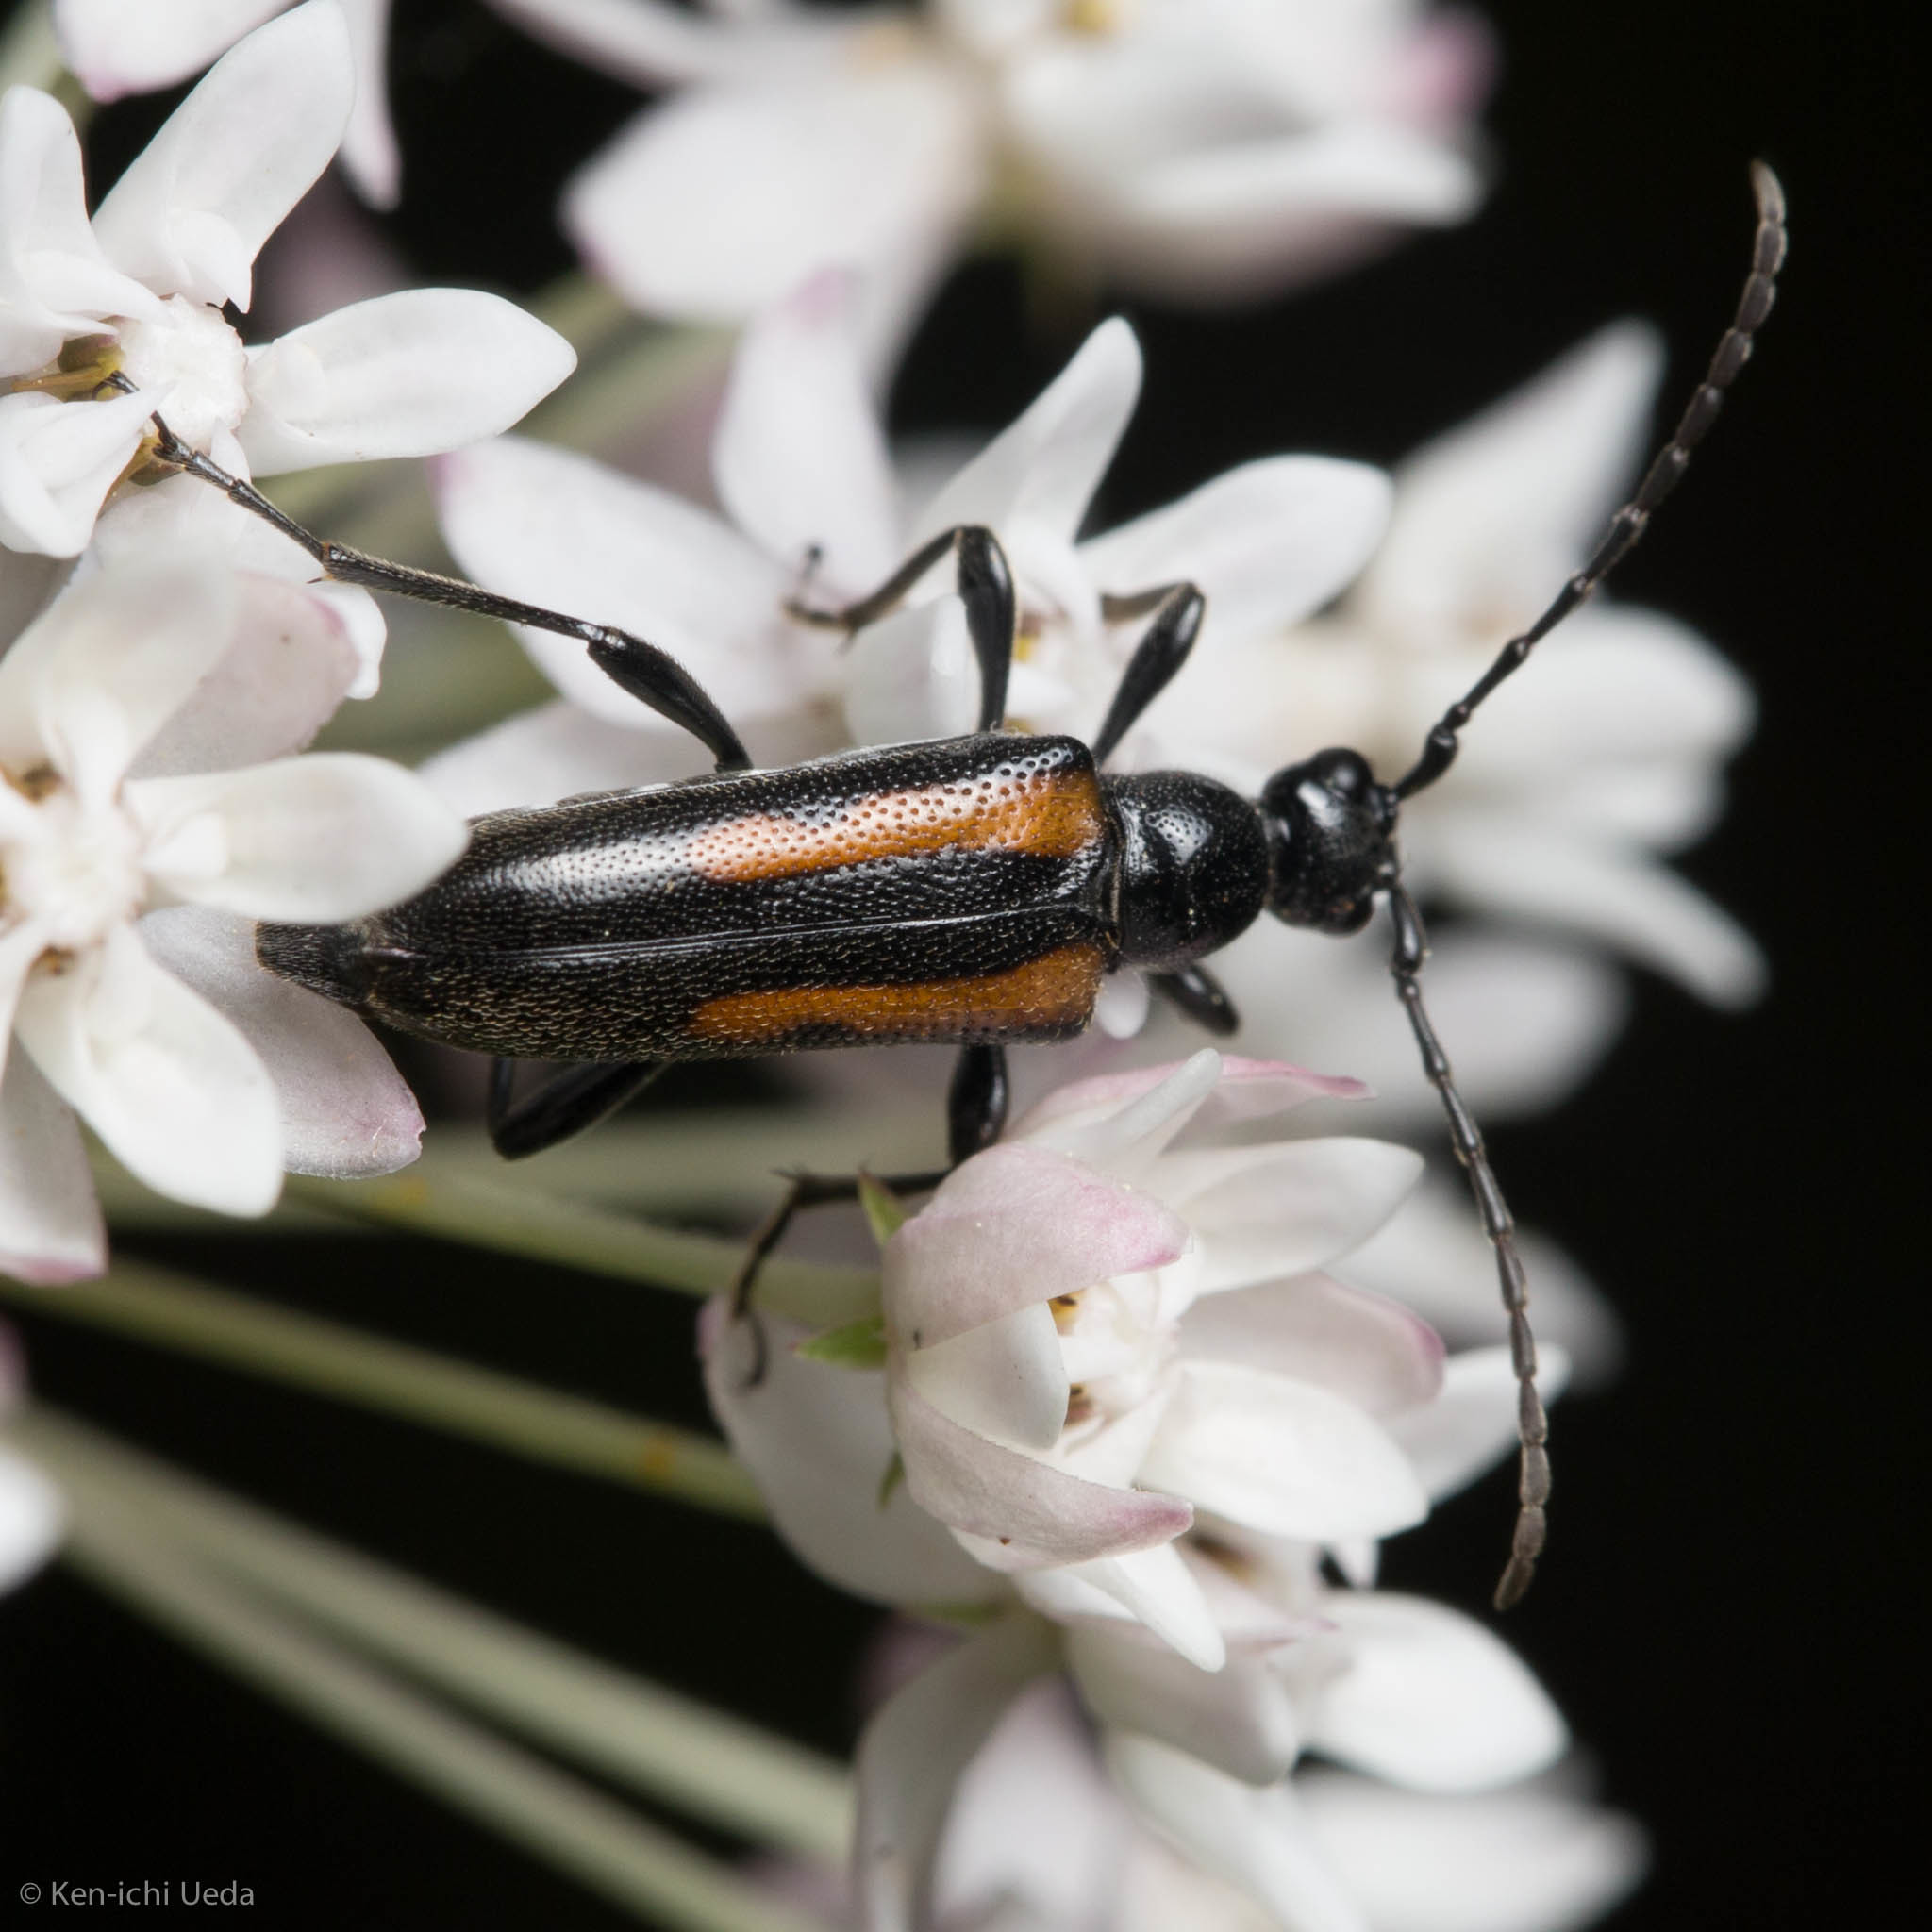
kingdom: Animalia
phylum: Arthropoda
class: Insecta
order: Coleoptera
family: Cerambycidae
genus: Strangalepta
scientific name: Strangalepta abbreviata
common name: Strangalepta flower longhorn beetle
